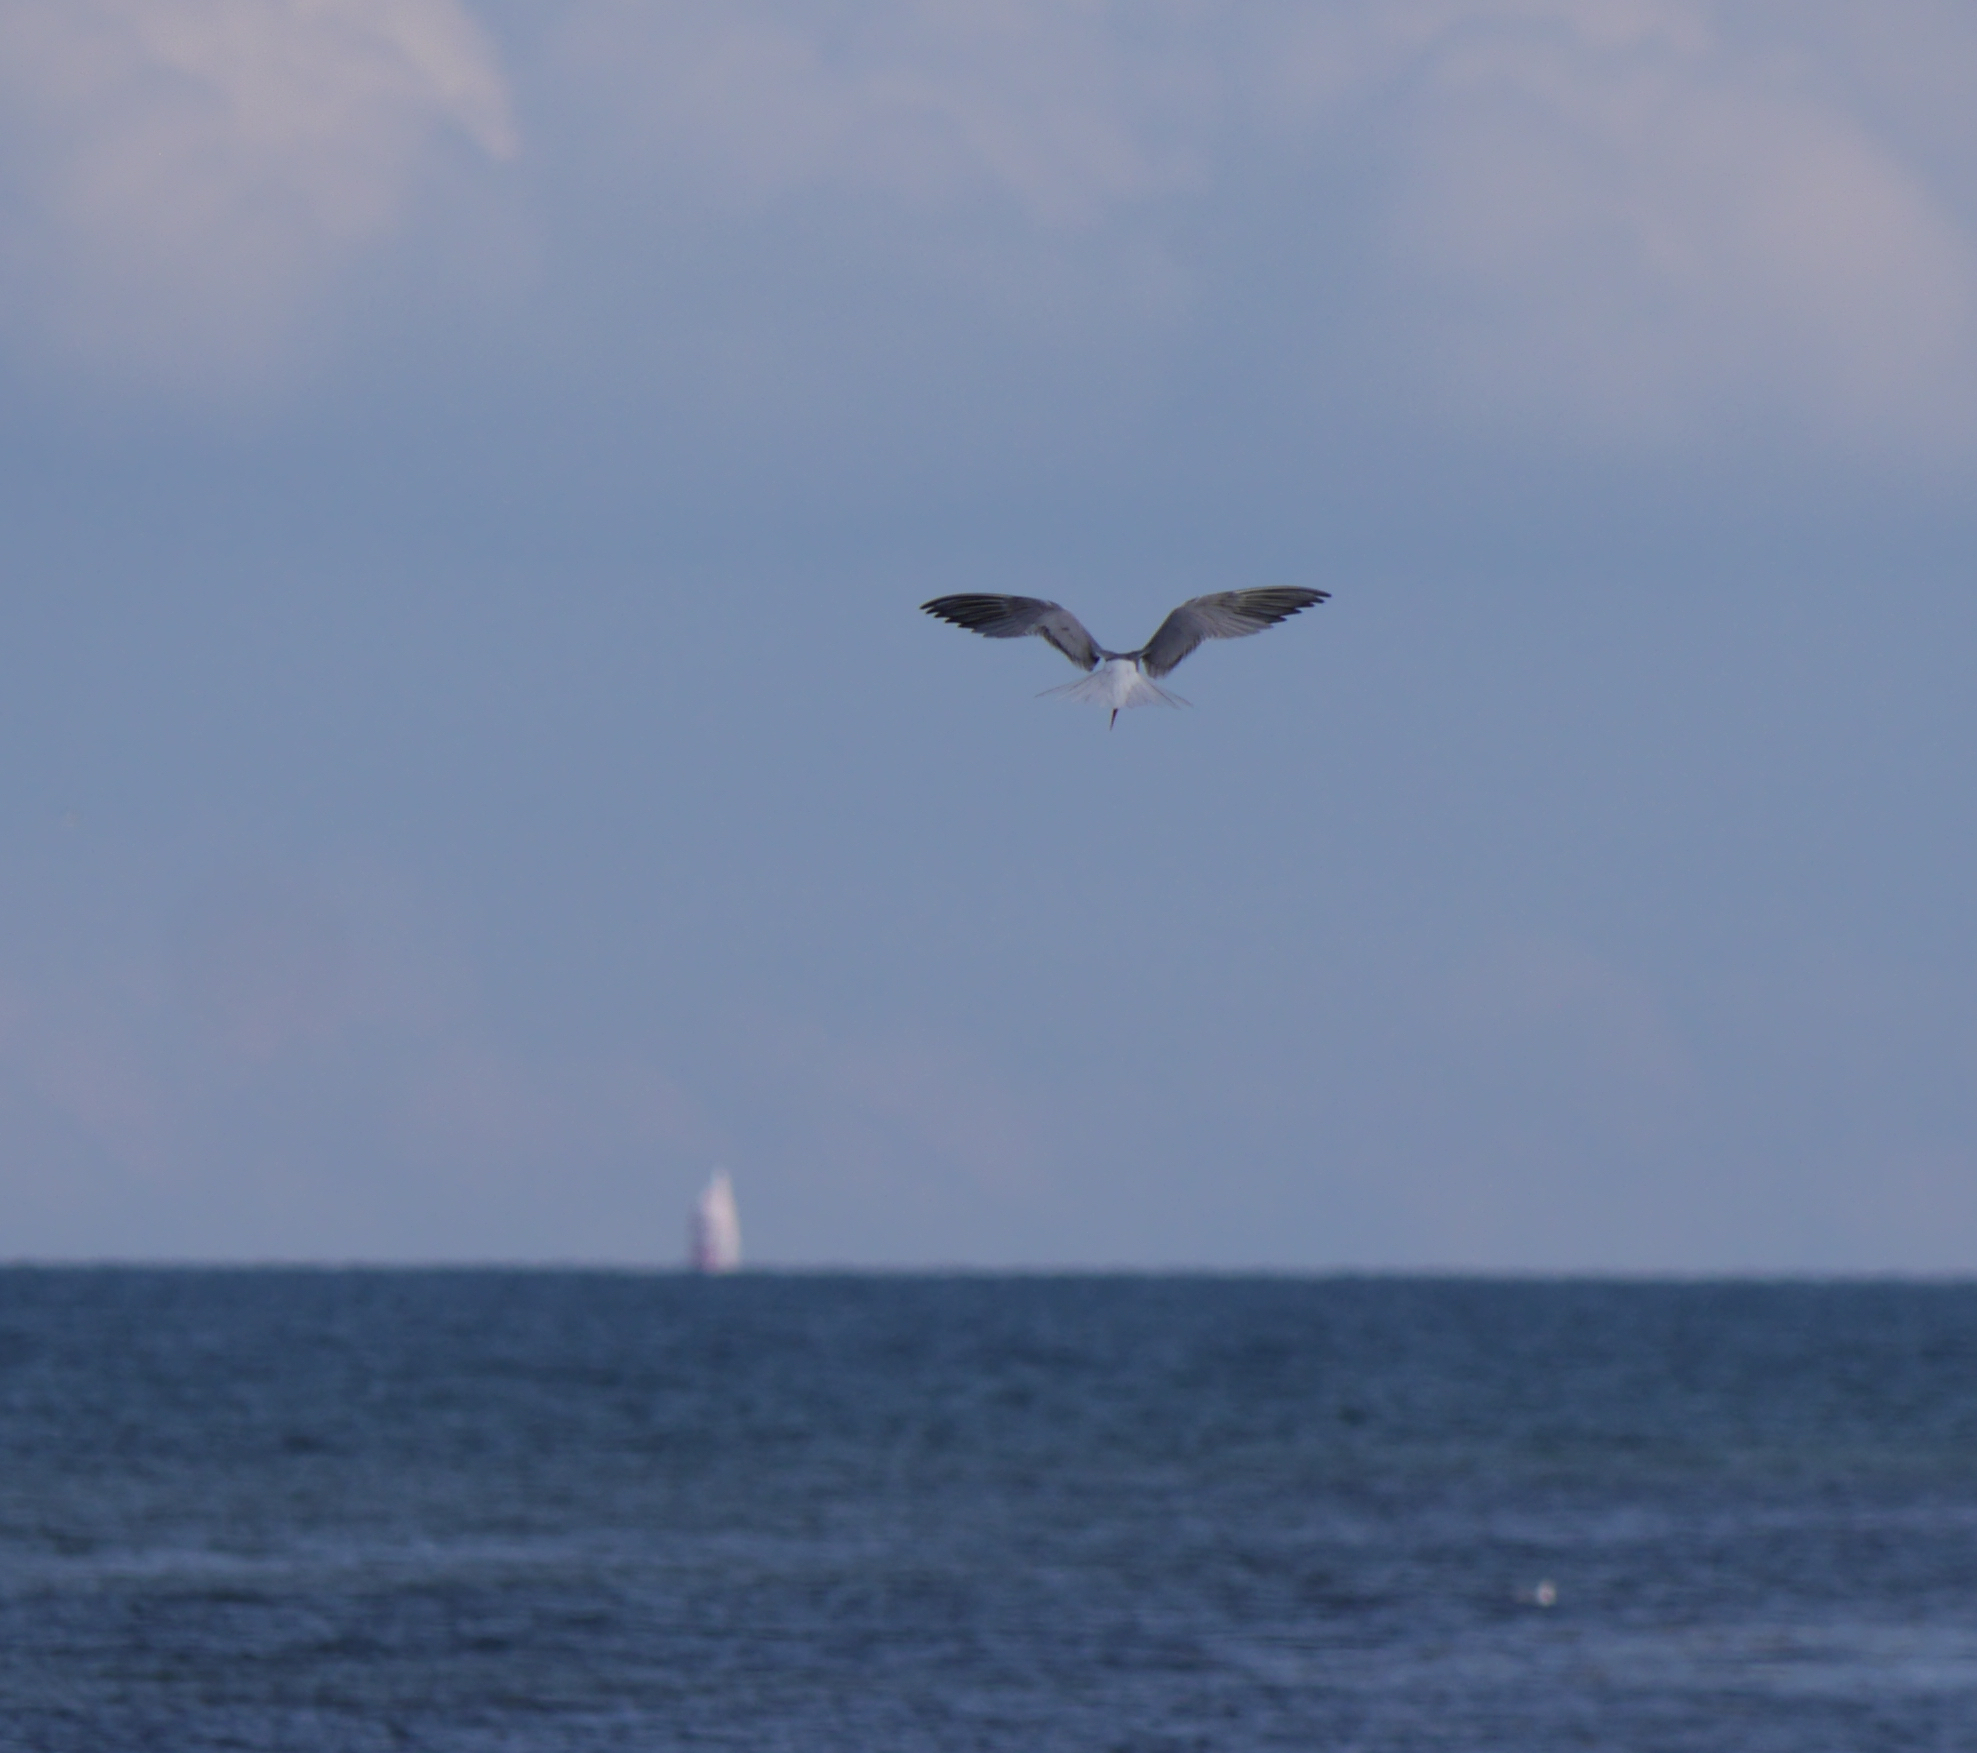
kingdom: Animalia
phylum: Chordata
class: Aves
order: Charadriiformes
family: Laridae
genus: Sterna
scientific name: Sterna hirundo
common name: Common tern
